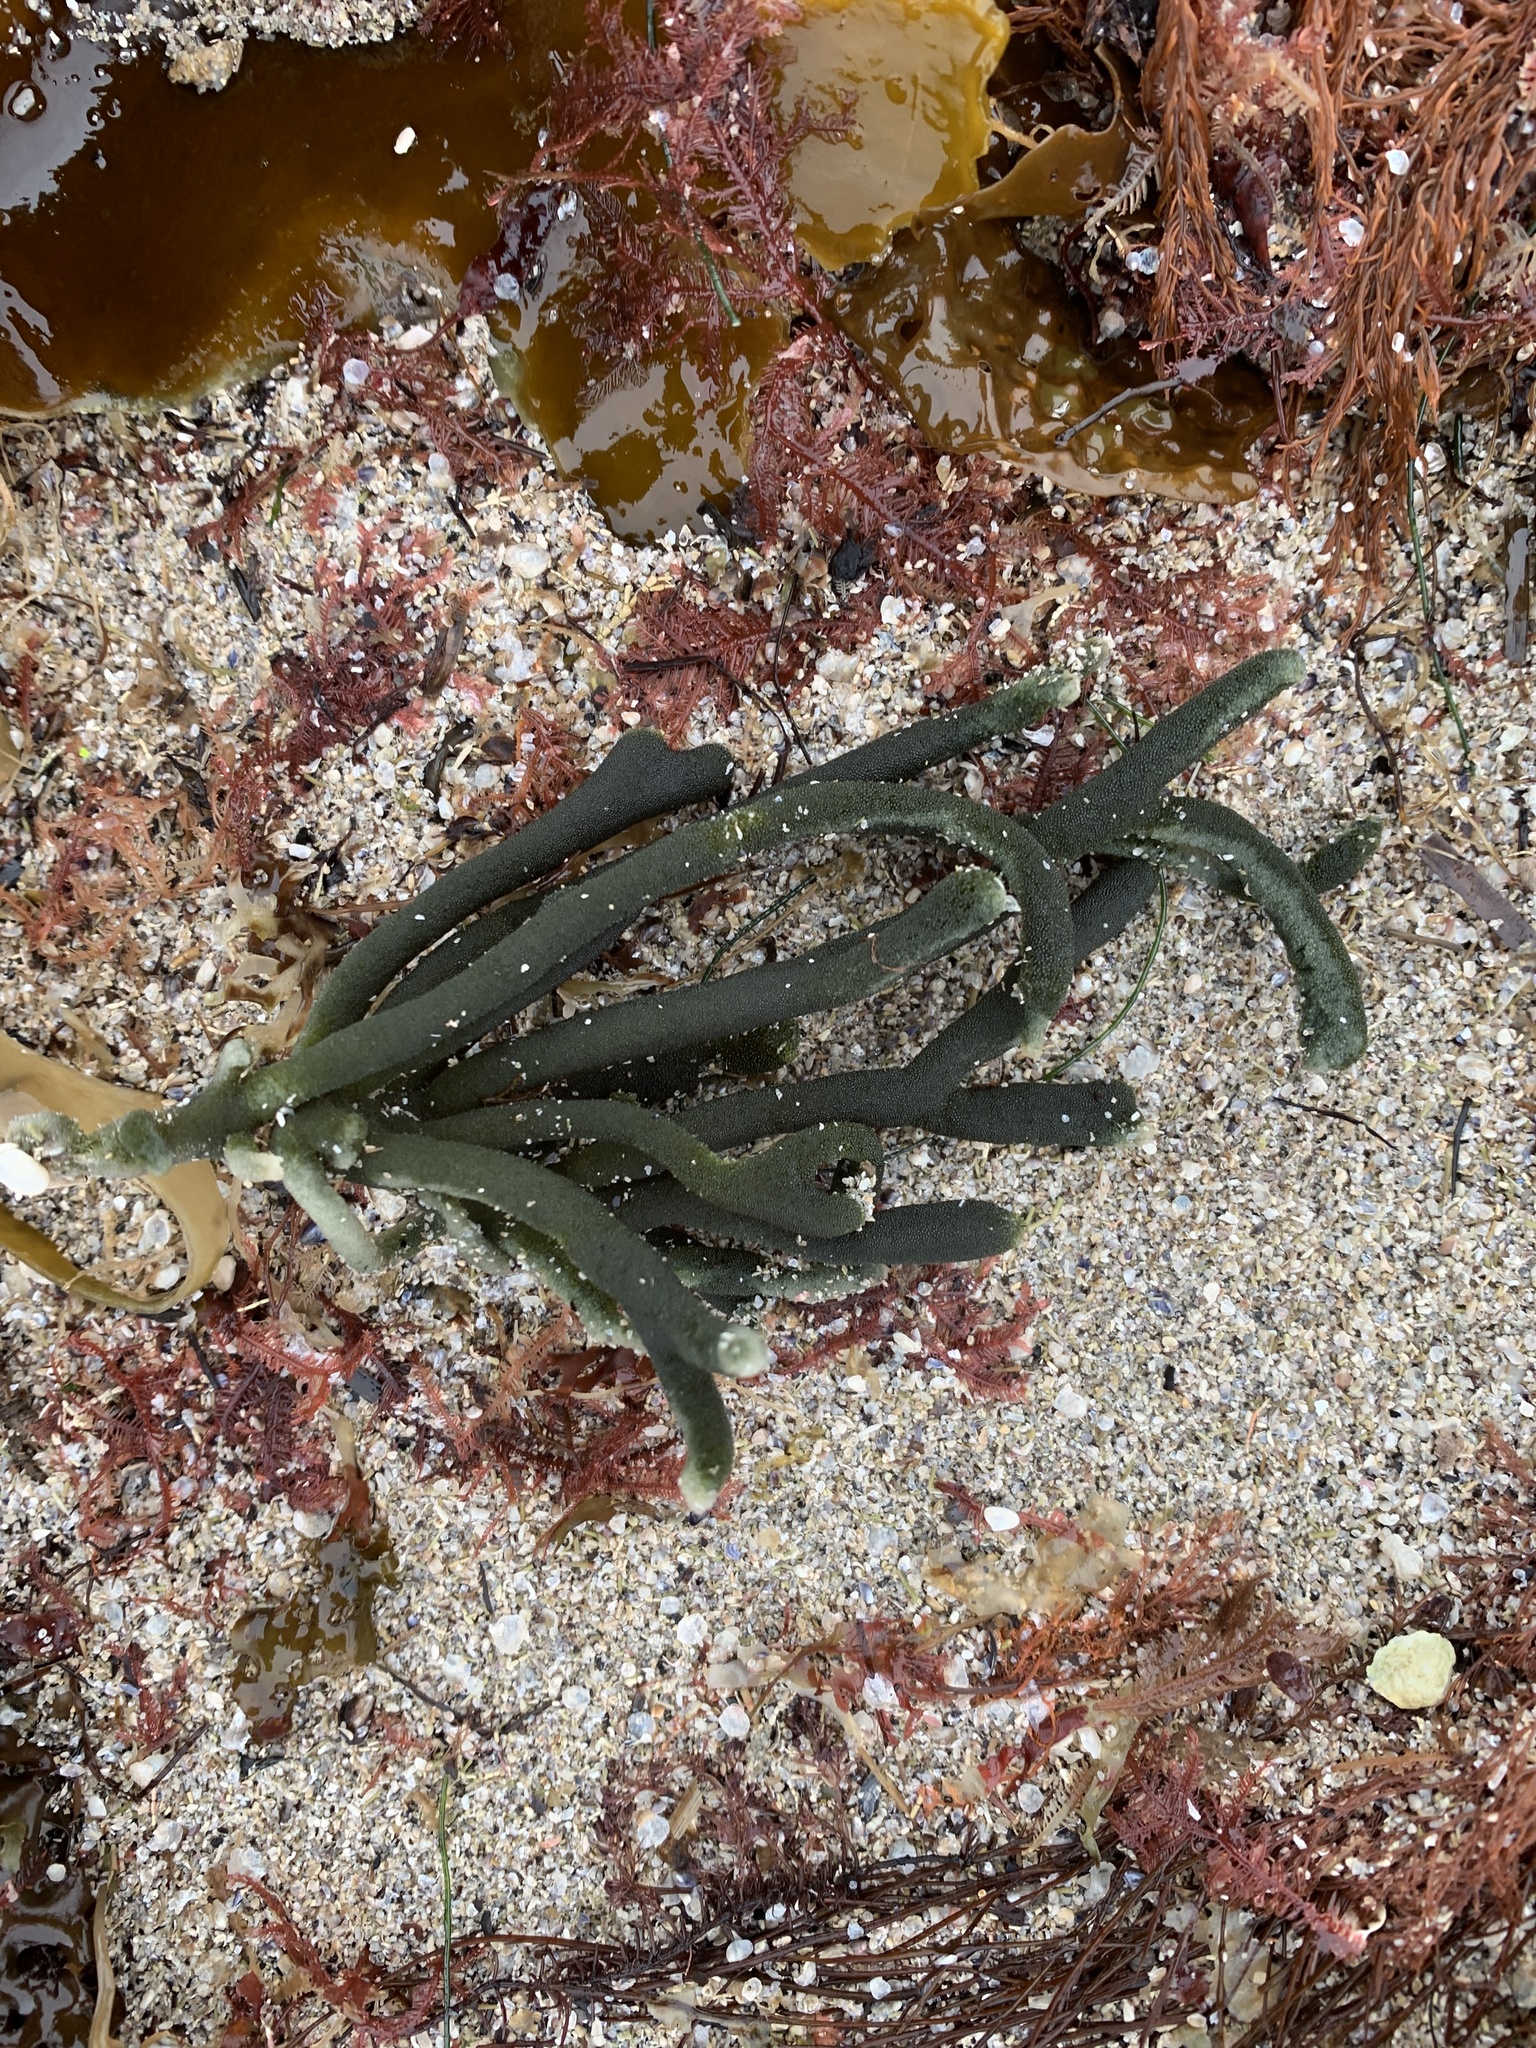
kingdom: Plantae
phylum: Chlorophyta
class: Ulvophyceae
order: Bryopsidales
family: Codiaceae
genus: Codium
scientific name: Codium fragile
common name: Dead man's fingers
